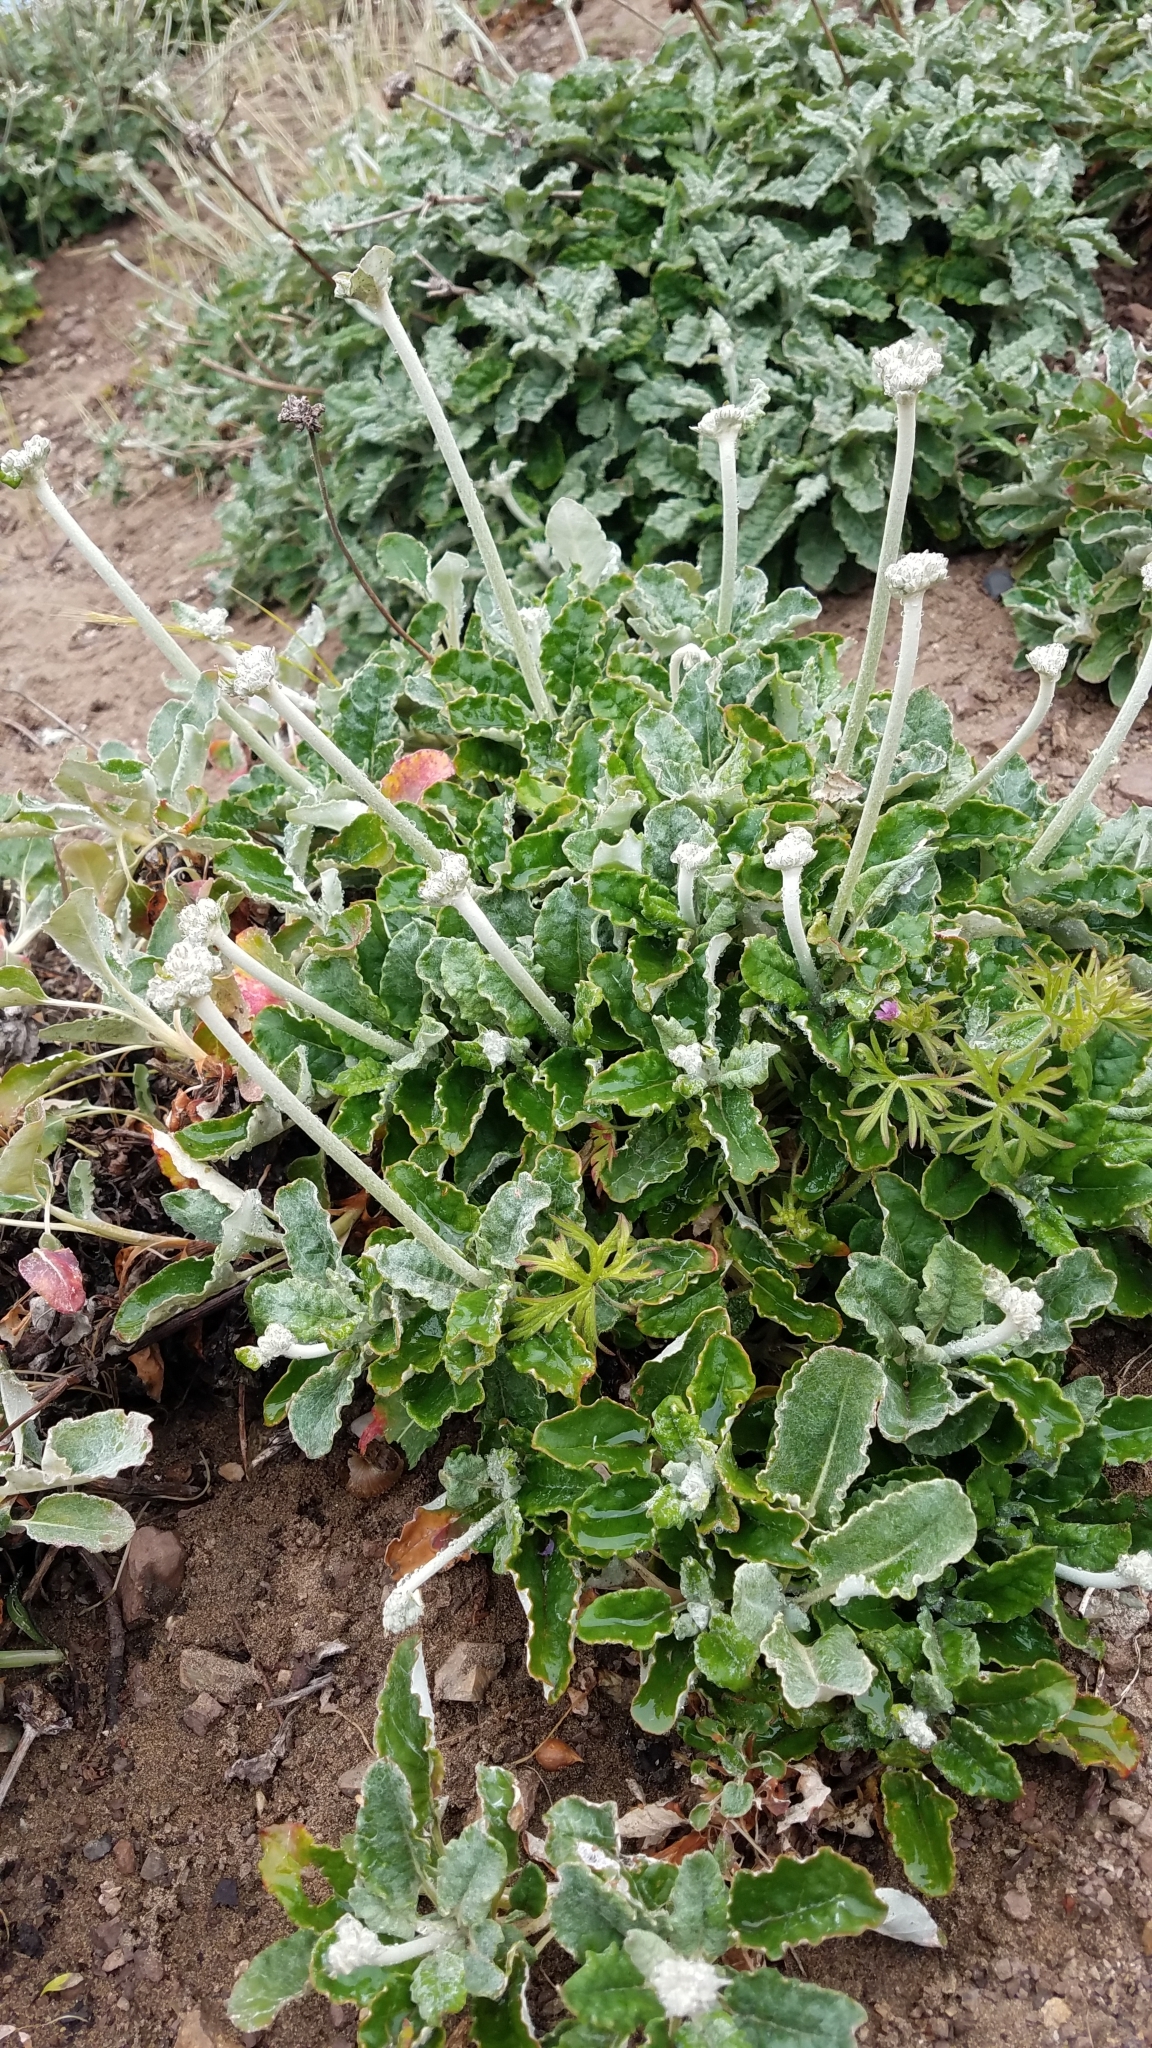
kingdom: Plantae
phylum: Tracheophyta
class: Magnoliopsida
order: Caryophyllales
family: Polygonaceae
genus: Eriogonum
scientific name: Eriogonum latifolium
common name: Seaside wild buckwheat
